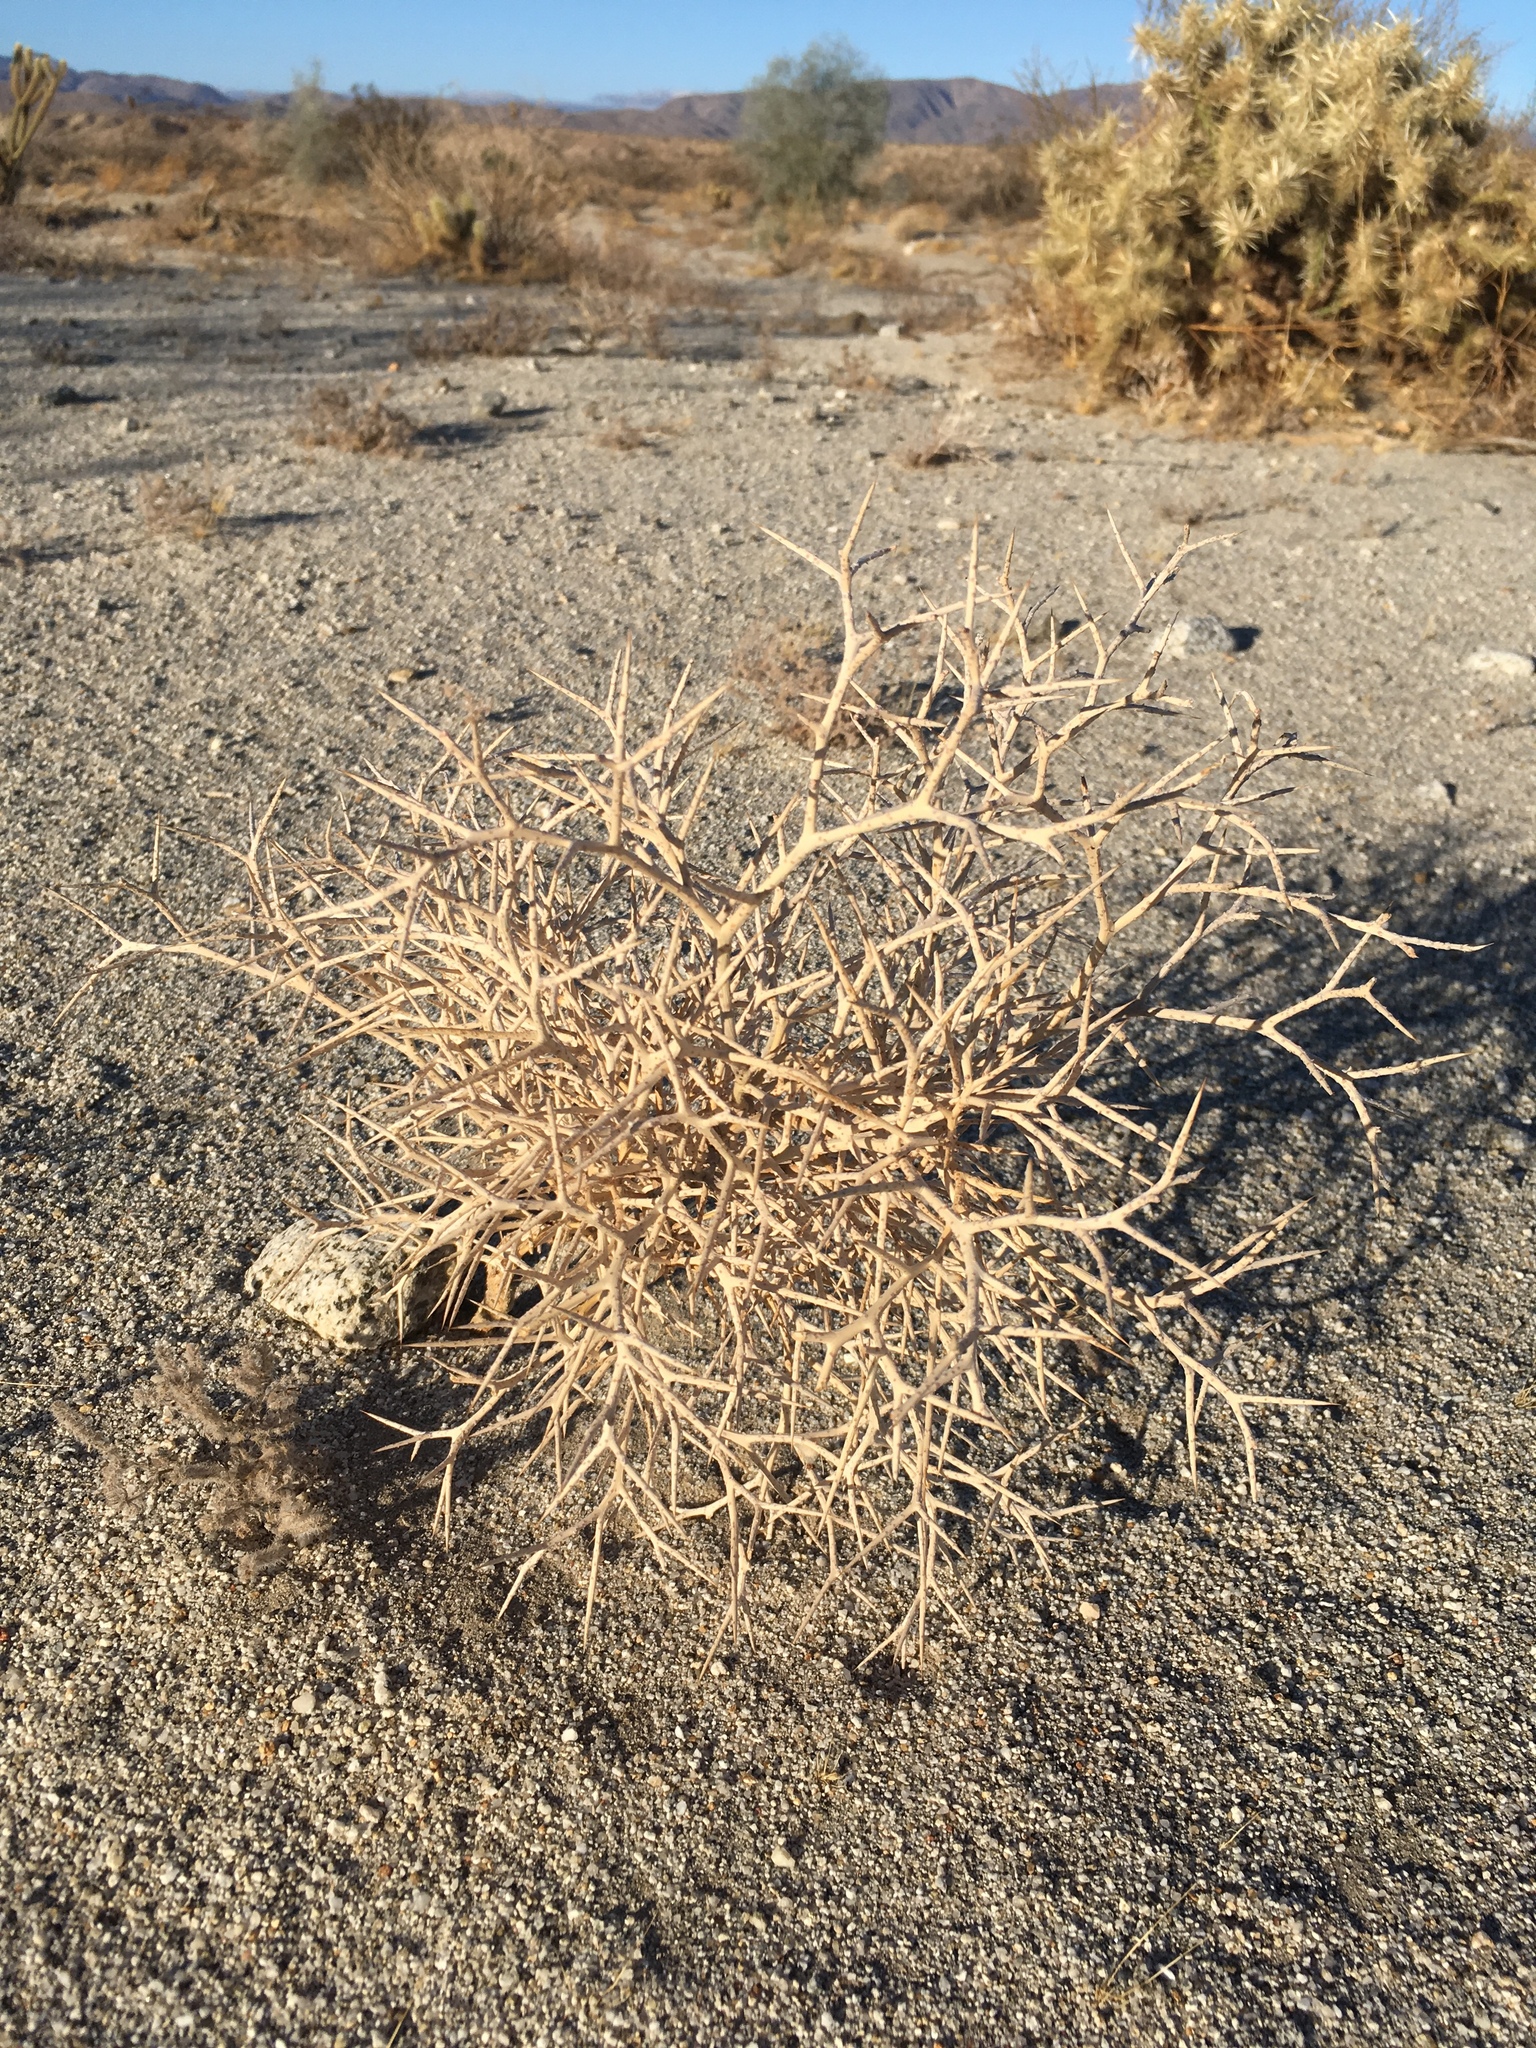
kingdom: Plantae
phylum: Tracheophyta
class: Magnoliopsida
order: Fabales
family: Fabaceae
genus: Psorothamnus
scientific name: Psorothamnus spinosus
